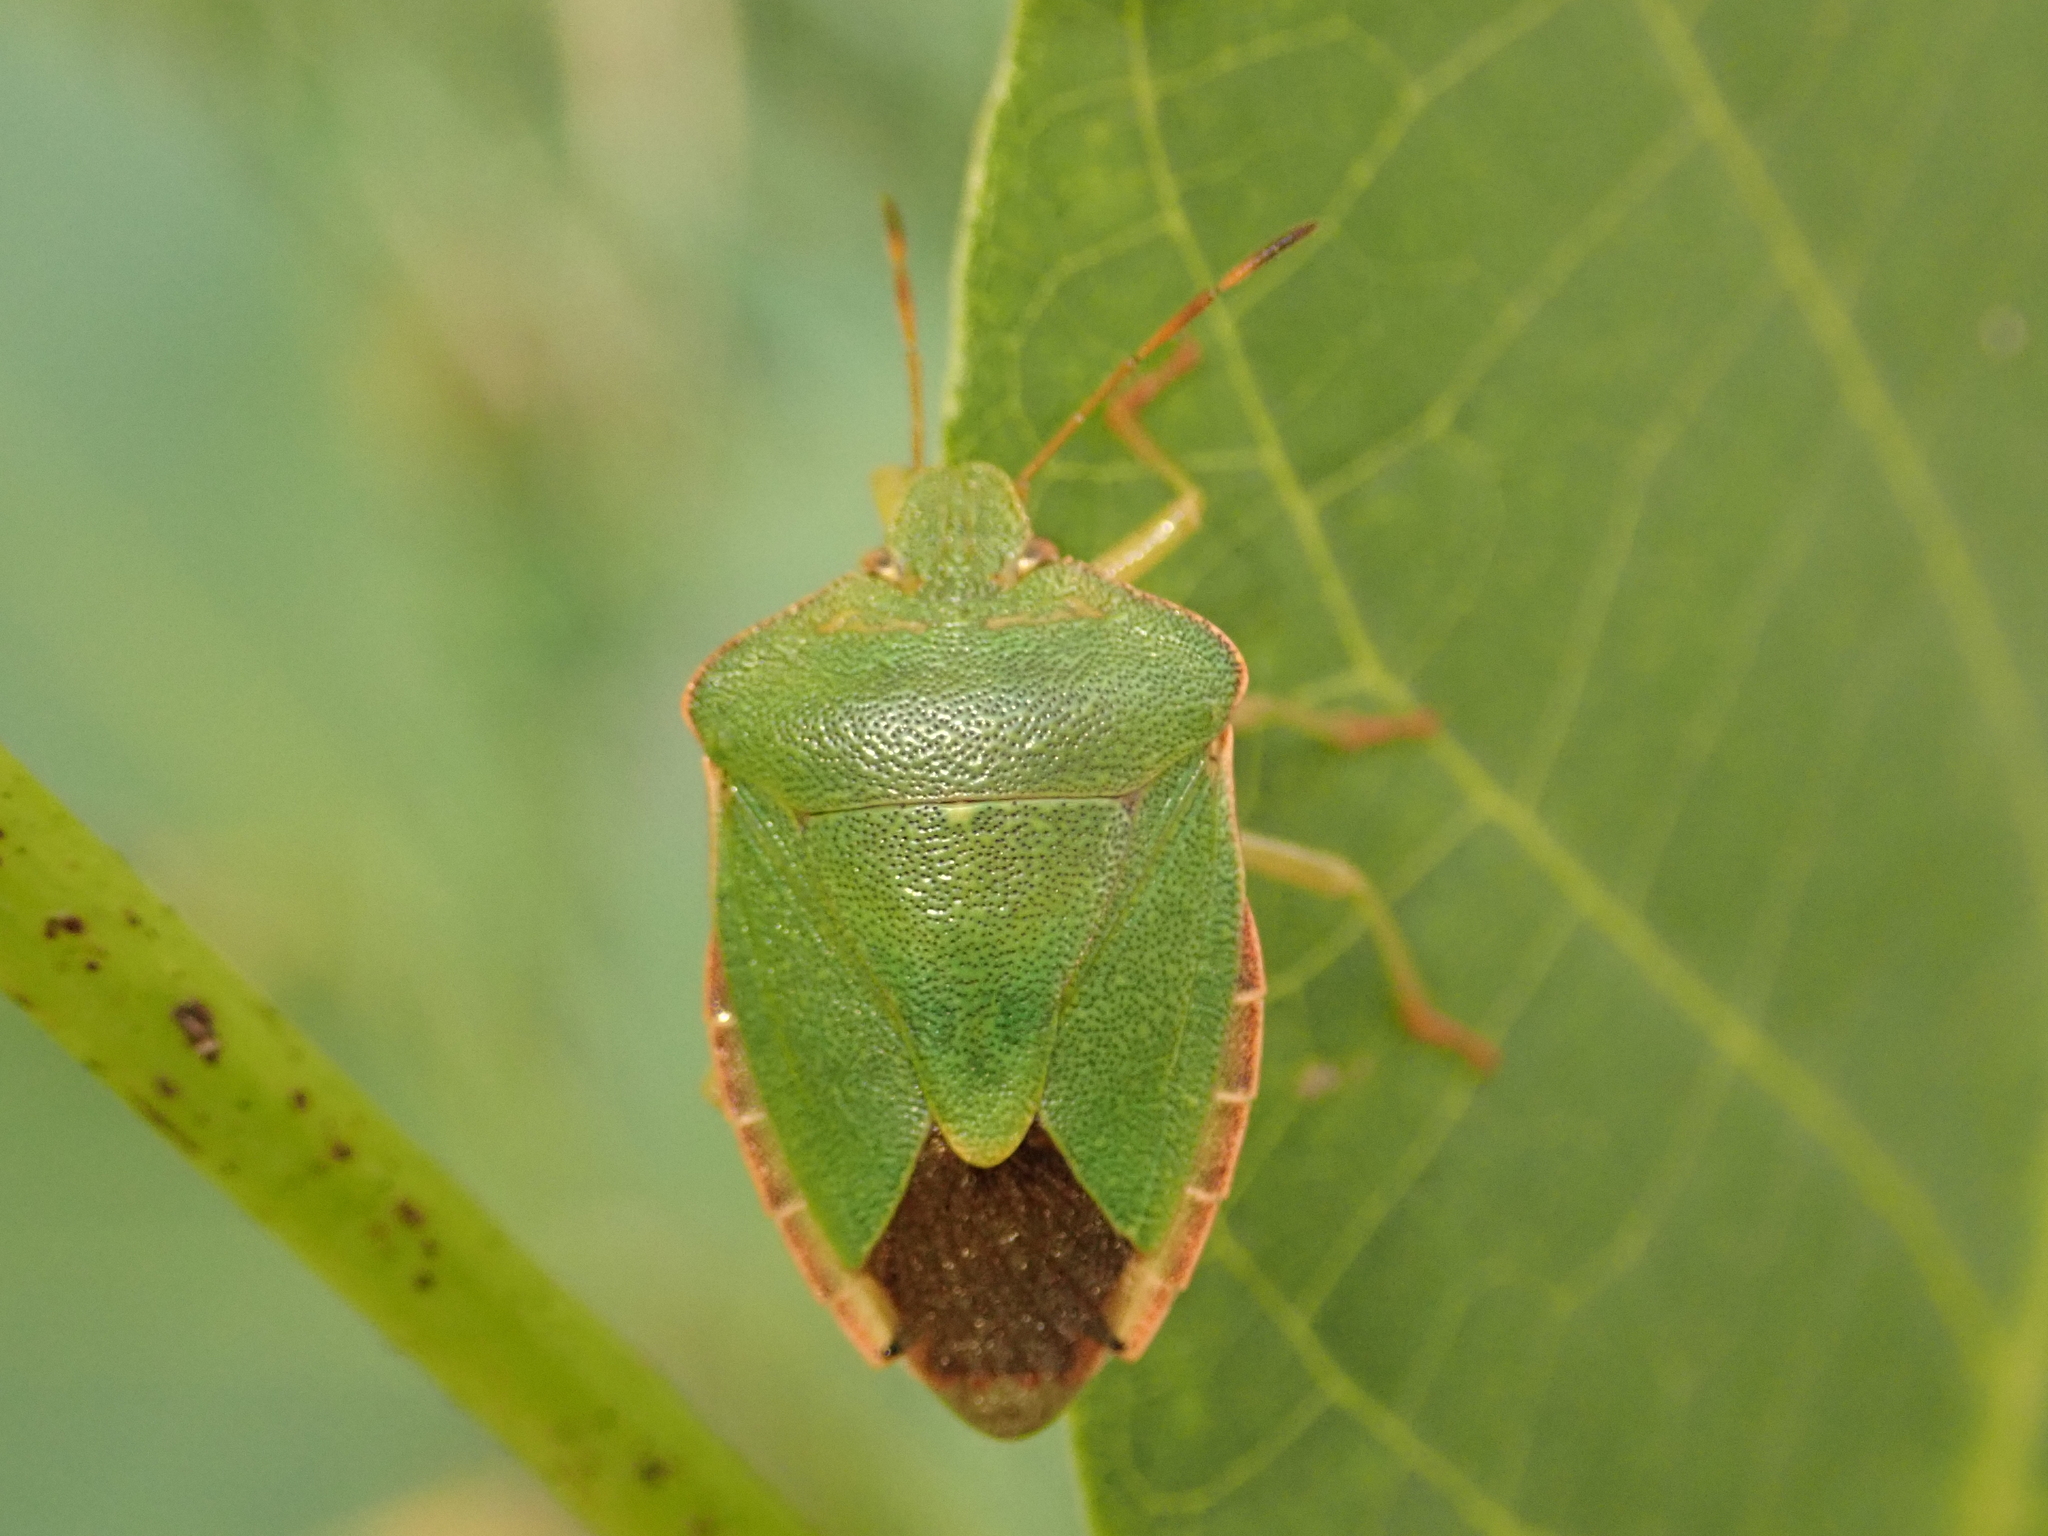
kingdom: Animalia
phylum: Arthropoda
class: Insecta
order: Hemiptera
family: Pentatomidae
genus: Palomena
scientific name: Palomena prasina
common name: Green shieldbug
